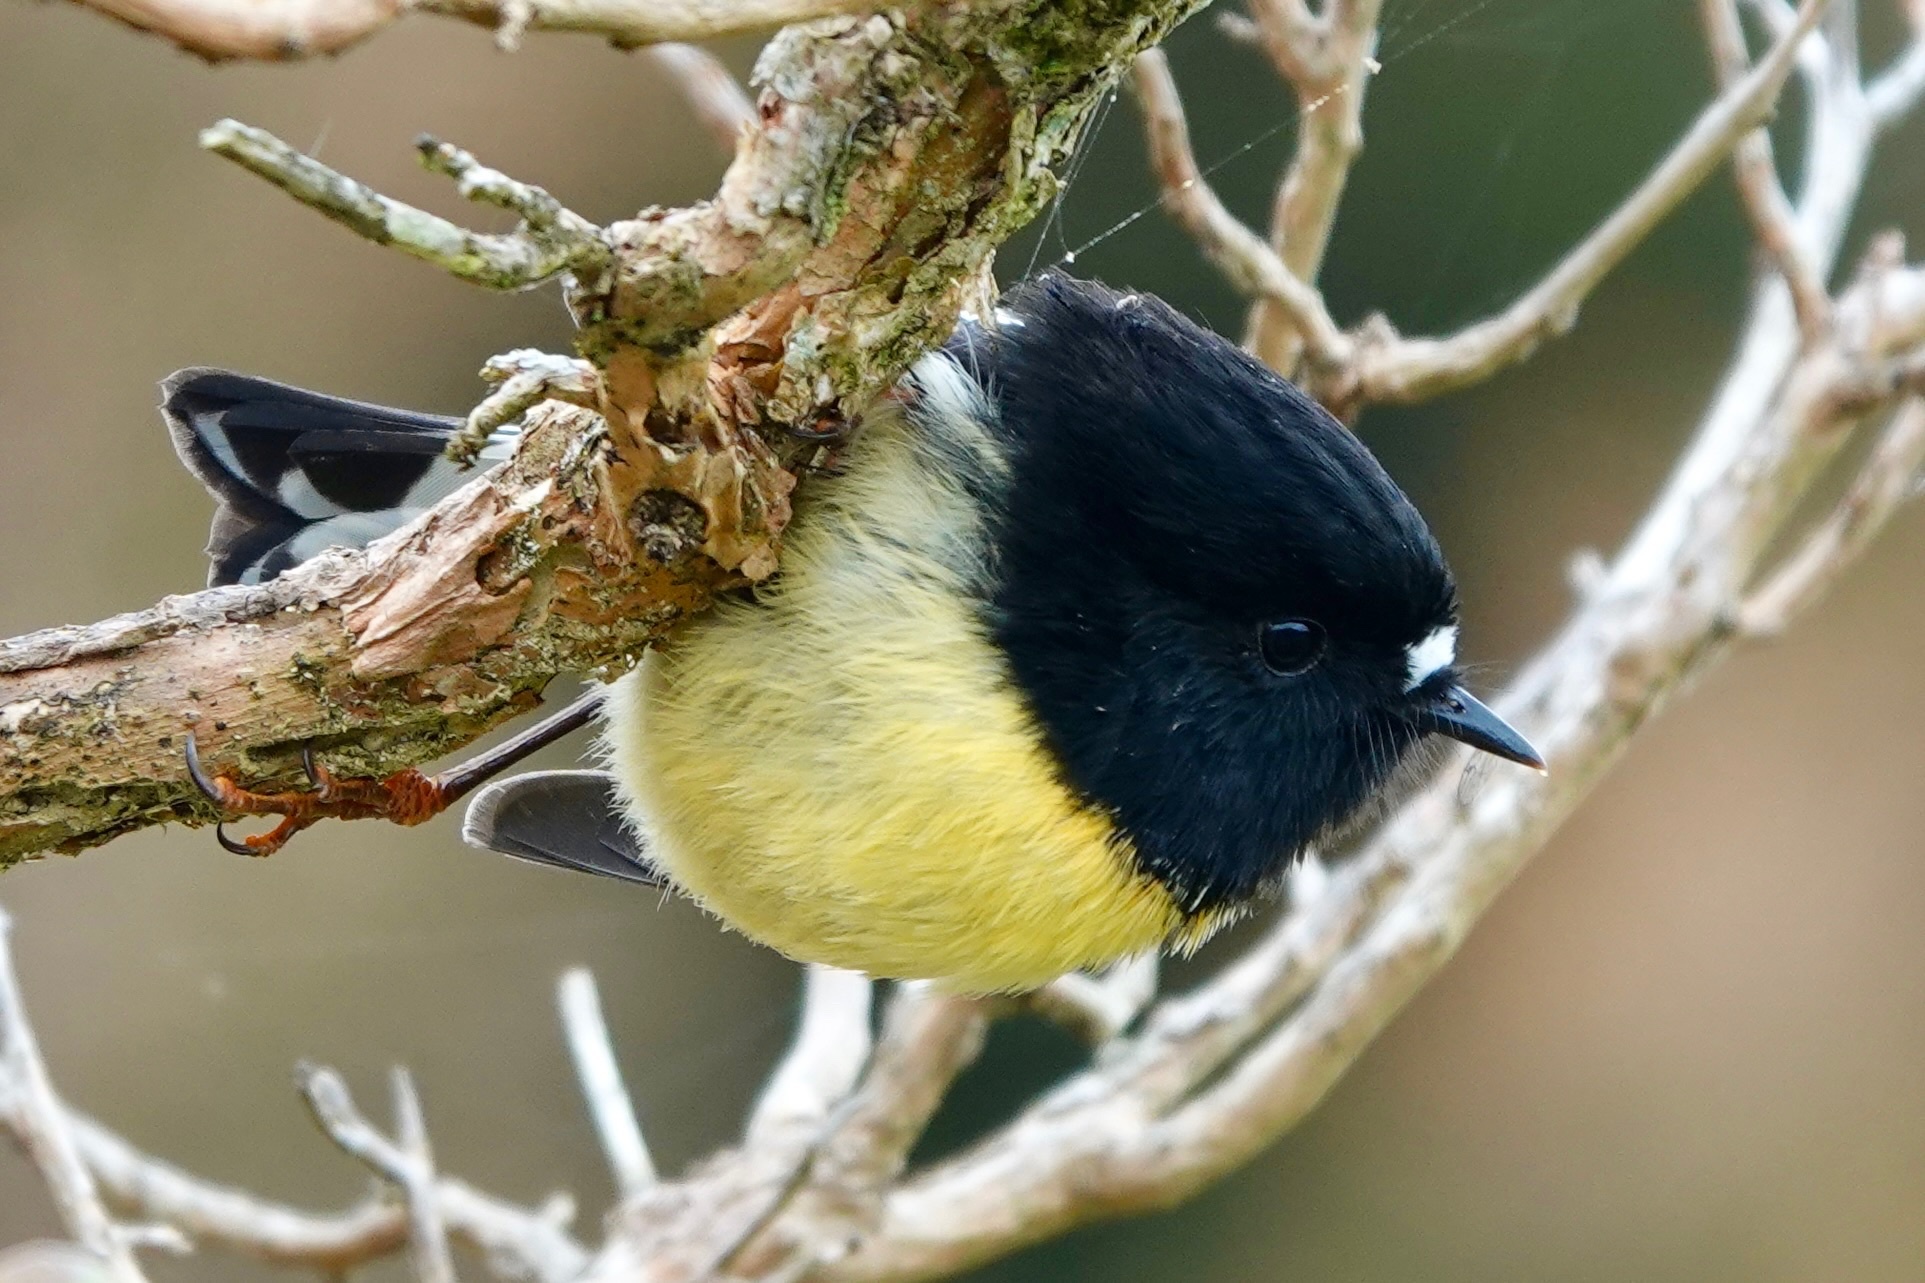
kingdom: Animalia
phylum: Chordata
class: Aves
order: Passeriformes
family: Petroicidae
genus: Petroica
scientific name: Petroica macrocephala
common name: Tomtit
